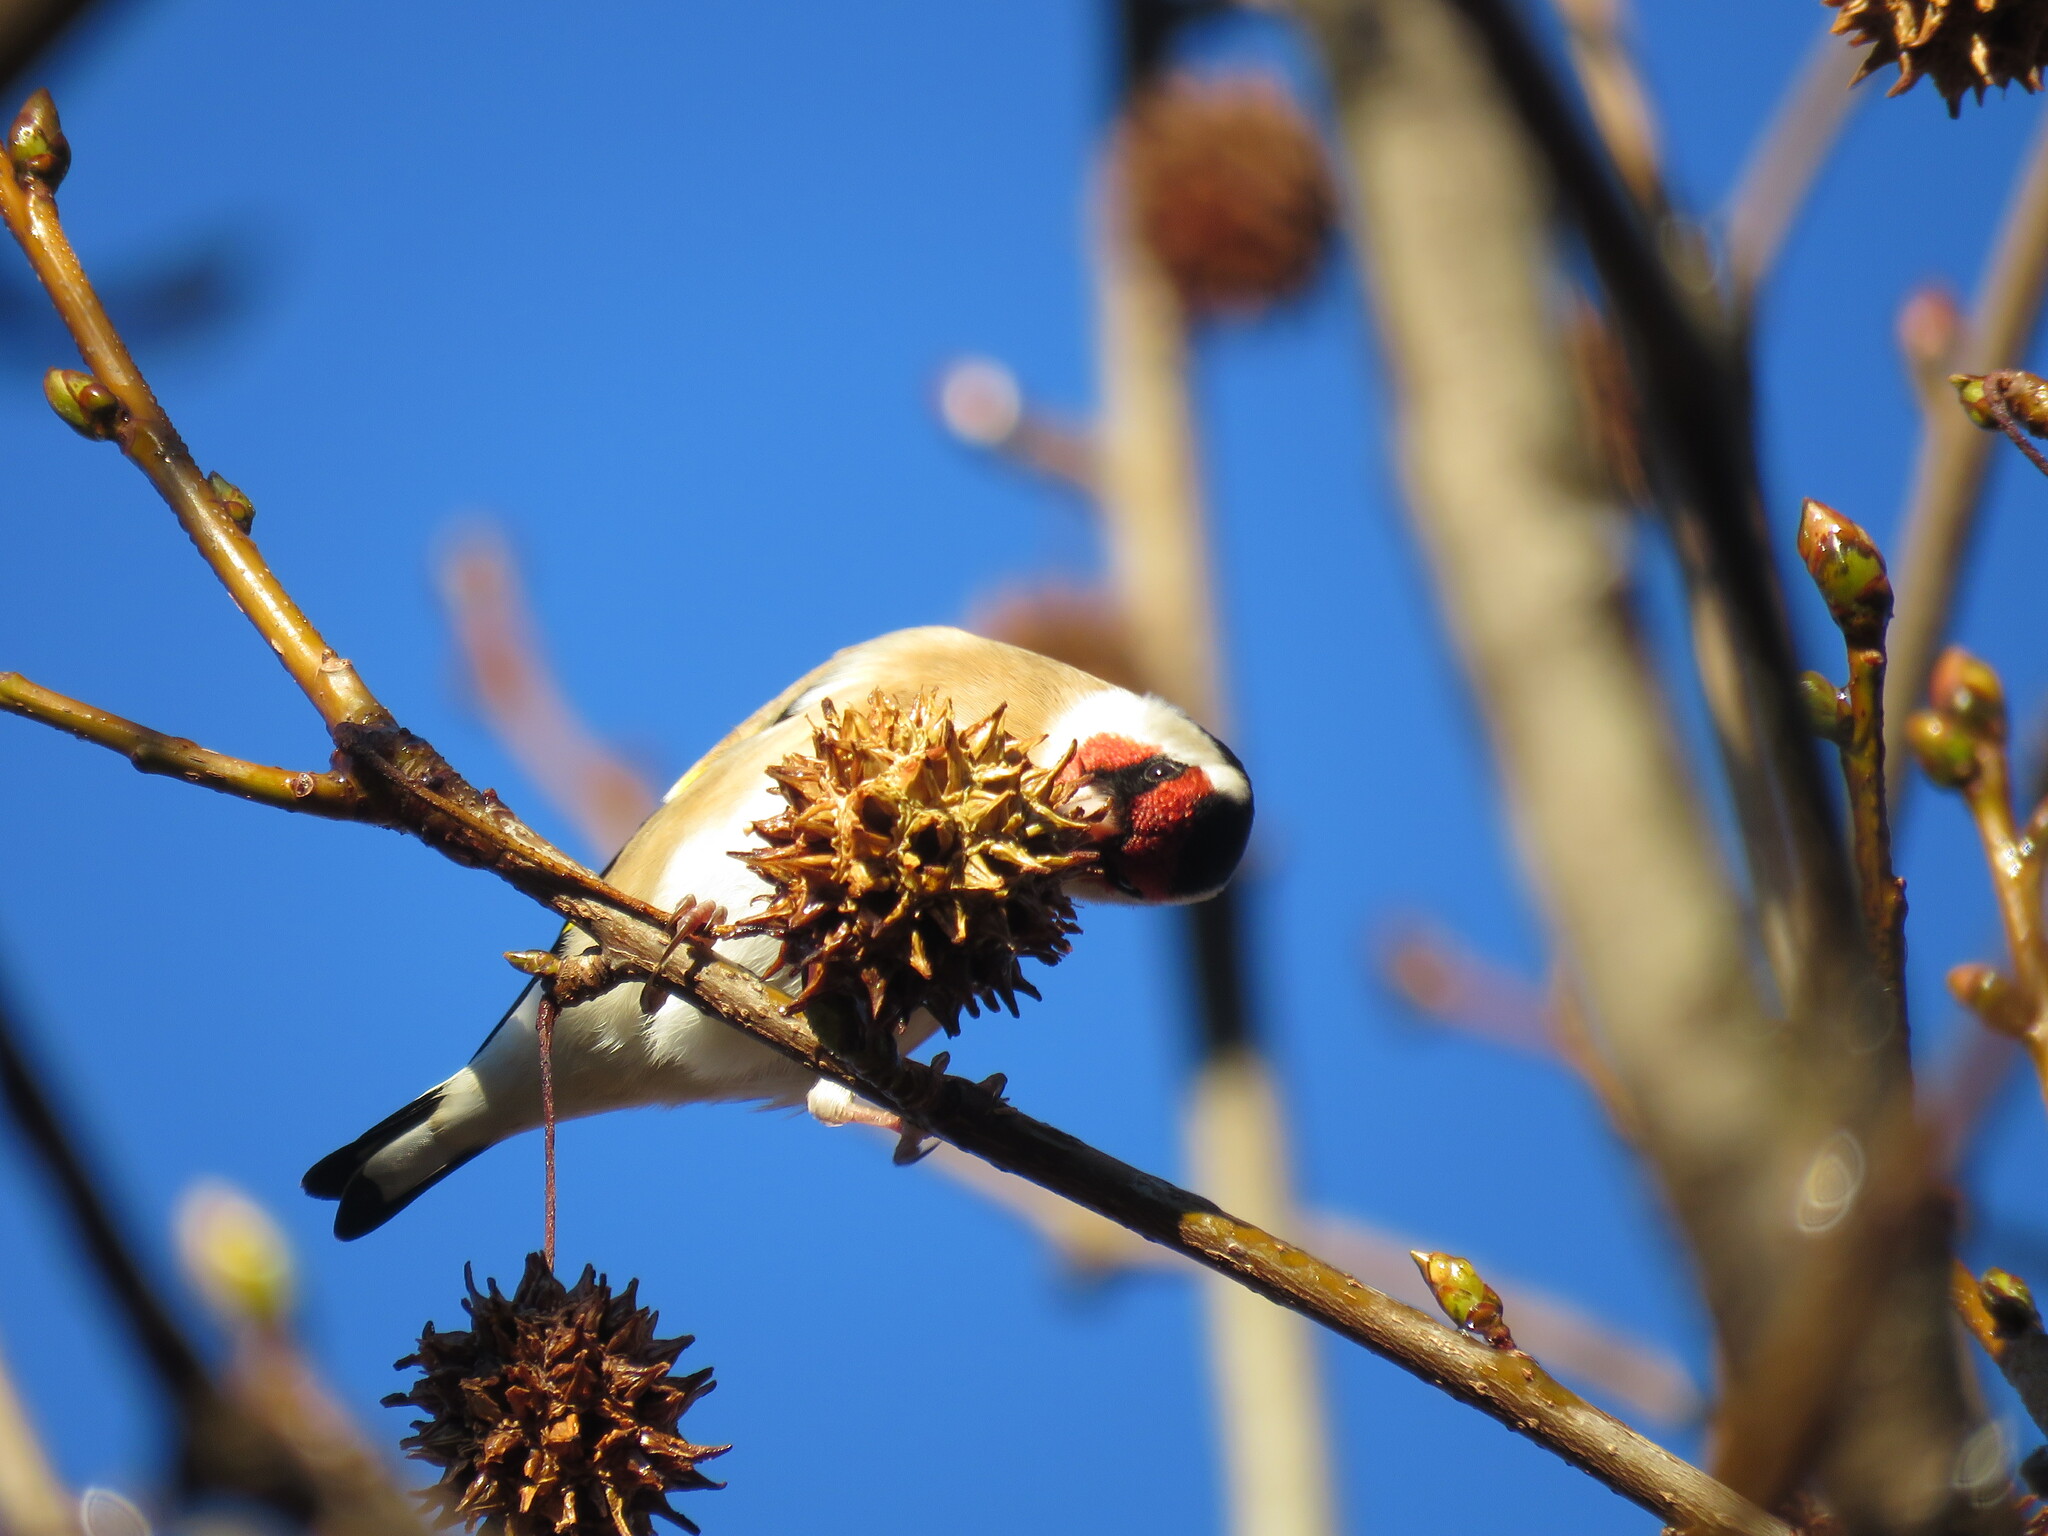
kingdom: Animalia
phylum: Chordata
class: Aves
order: Passeriformes
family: Fringillidae
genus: Carduelis
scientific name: Carduelis carduelis
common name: European goldfinch
